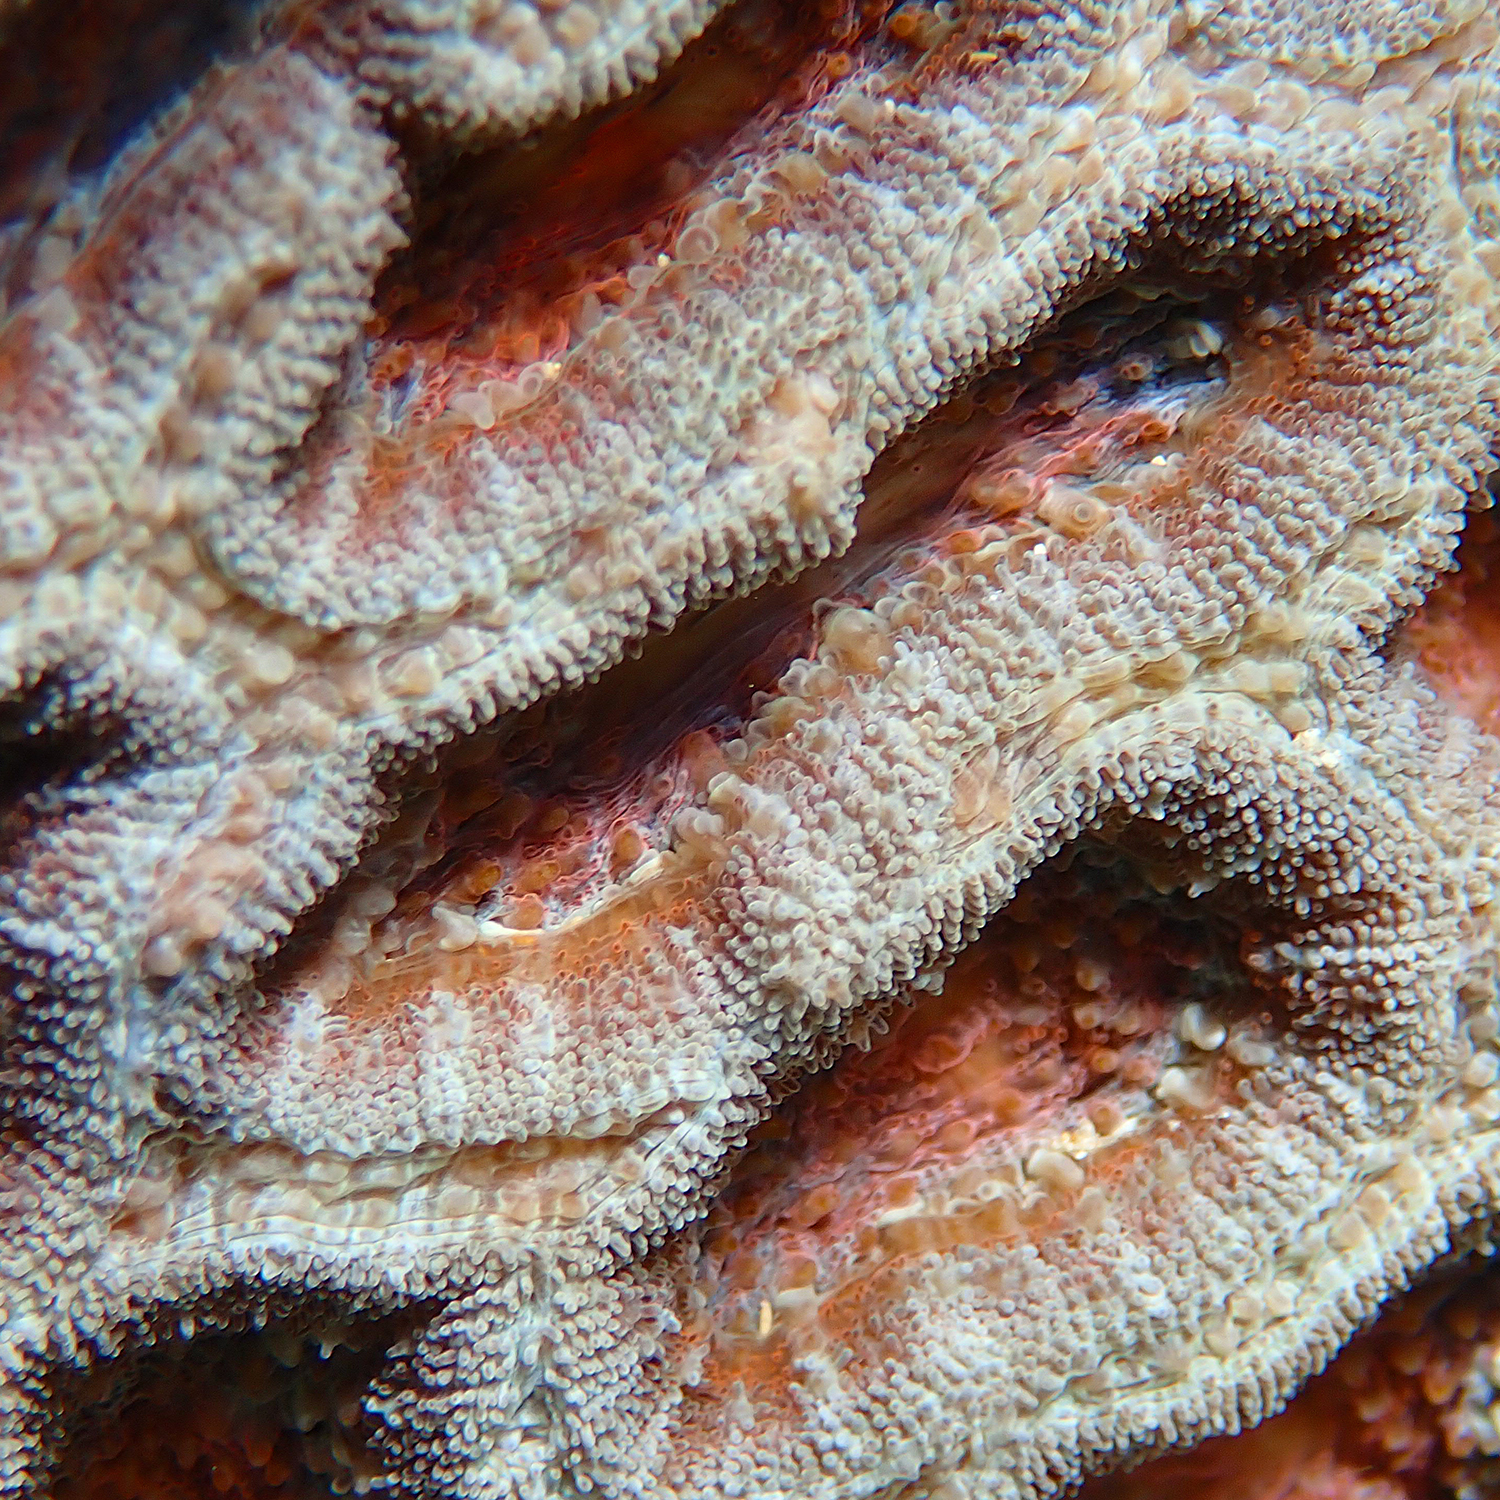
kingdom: Animalia
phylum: Cnidaria
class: Anthozoa
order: Scleractinia
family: Lobophylliidae
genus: Micromussa
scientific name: Micromussa lordhowensis
